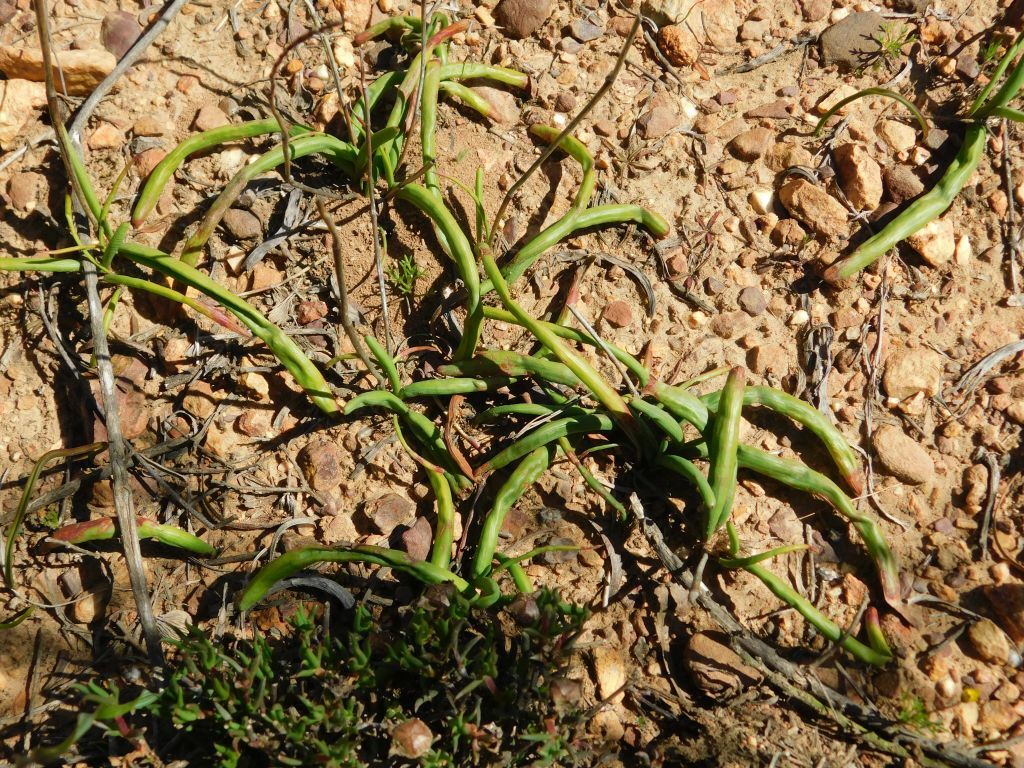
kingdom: Plantae
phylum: Tracheophyta
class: Liliopsida
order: Asparagales
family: Iridaceae
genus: Micranthus
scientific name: Micranthus tubulosus
